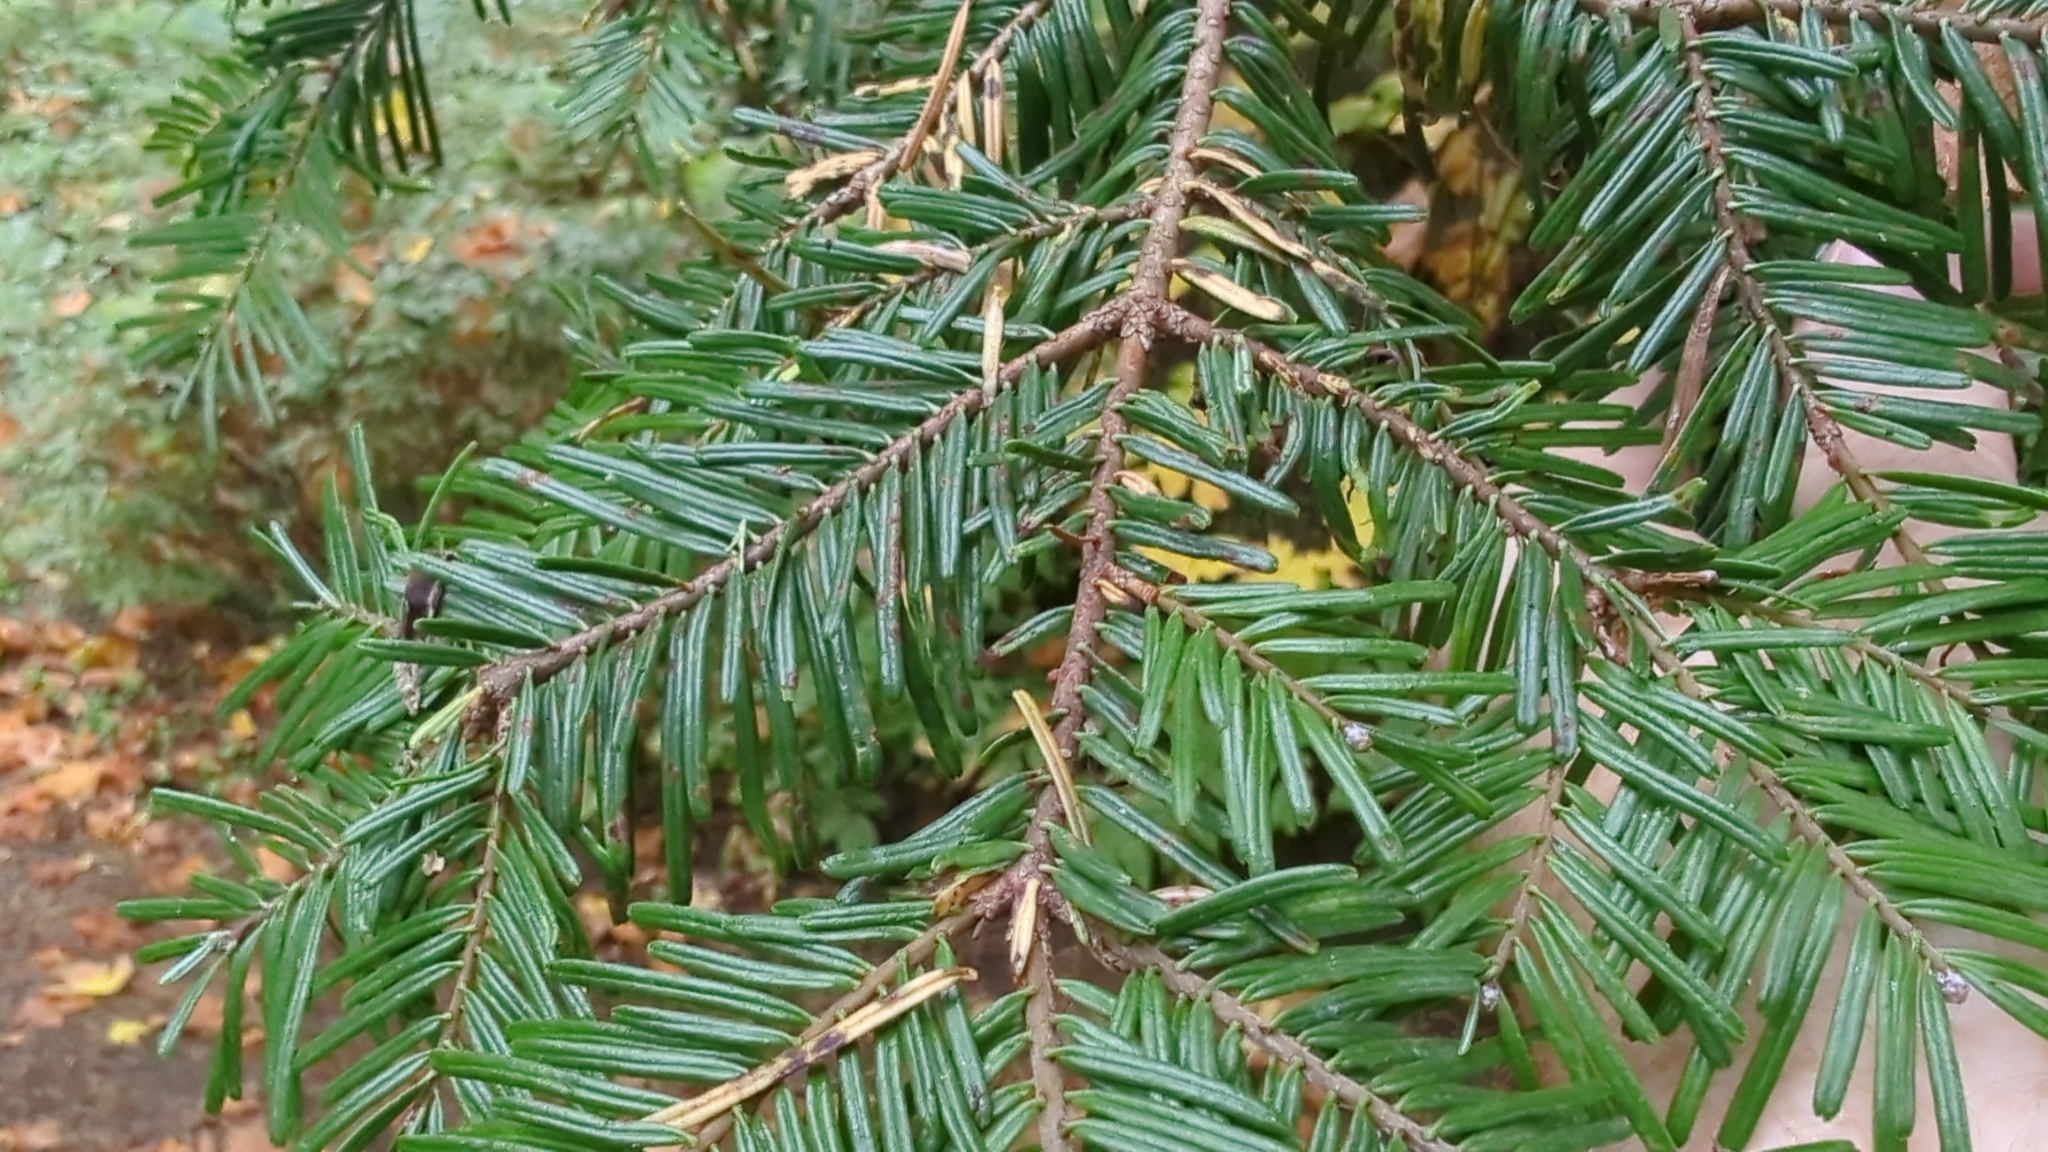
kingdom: Plantae
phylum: Tracheophyta
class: Pinopsida
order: Pinales
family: Pinaceae
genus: Abies
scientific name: Abies grandis
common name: Giant fir
